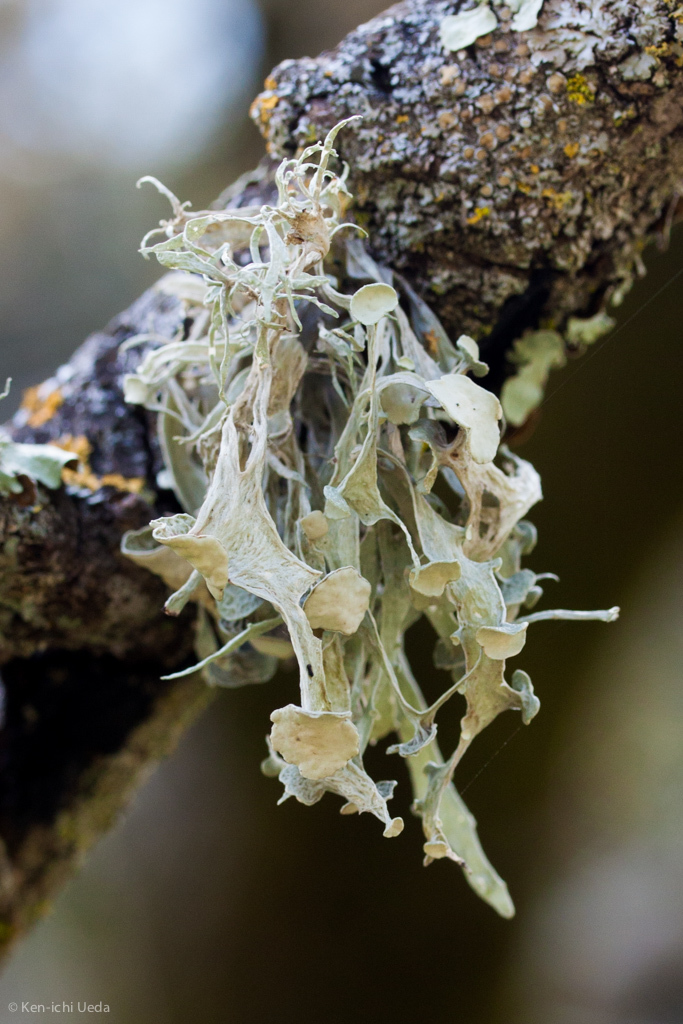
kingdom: Fungi
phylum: Ascomycota
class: Lecanoromycetes
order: Lecanorales
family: Ramalinaceae
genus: Ramalina
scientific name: Ramalina leptocarpha
